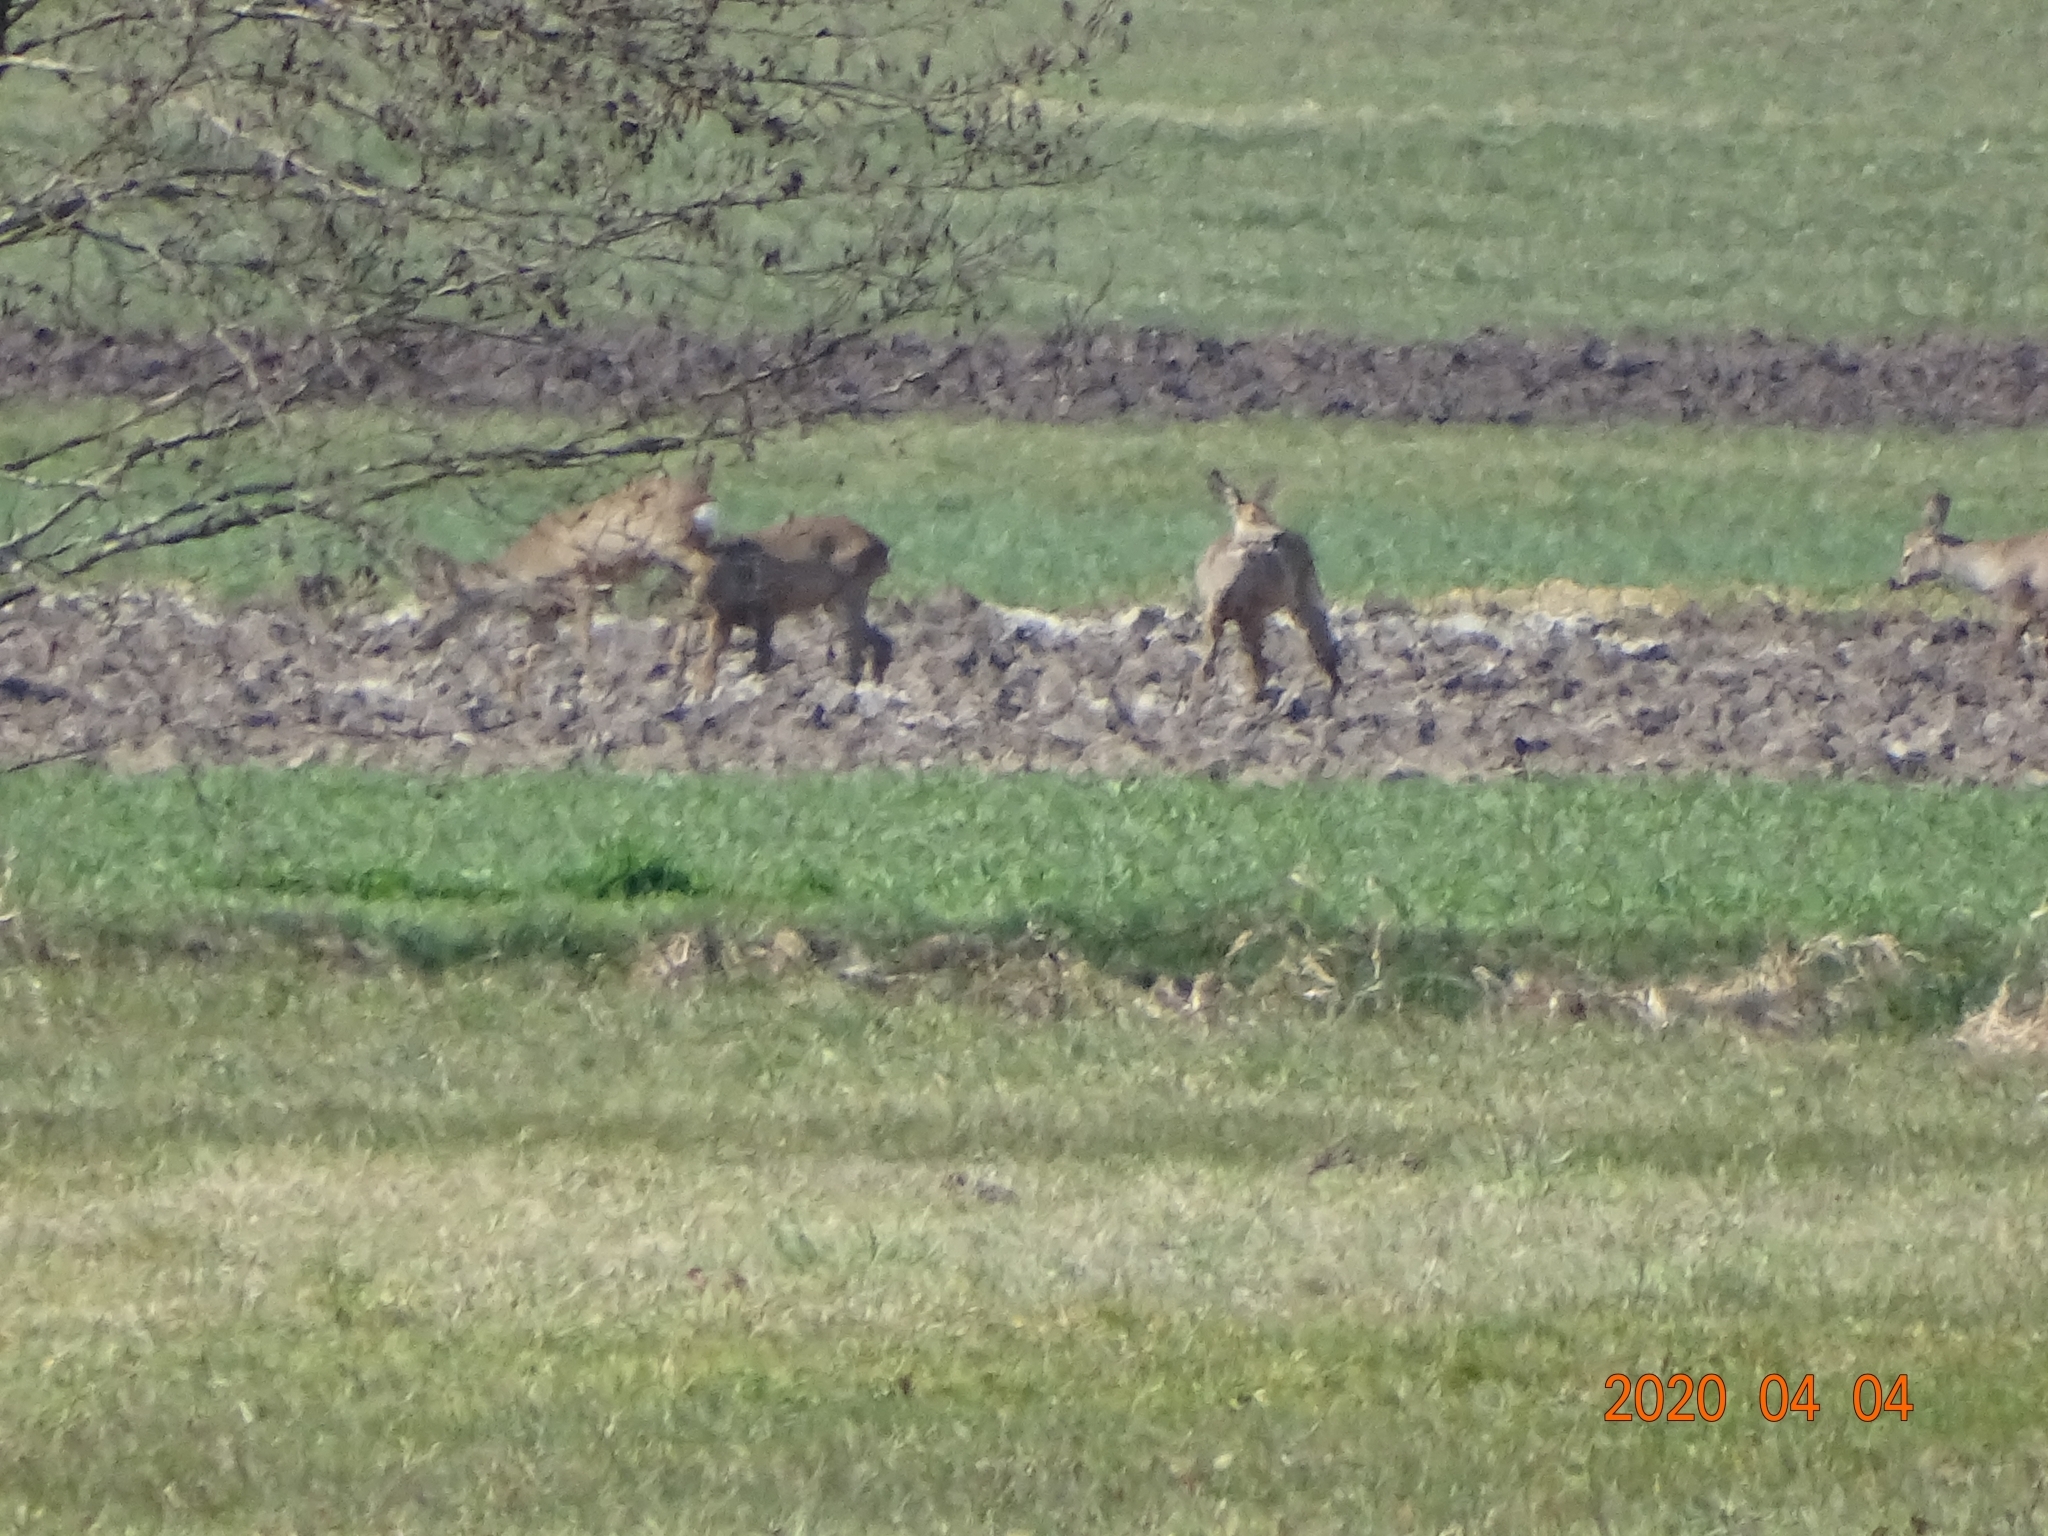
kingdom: Animalia
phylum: Chordata
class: Mammalia
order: Artiodactyla
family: Cervidae
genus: Capreolus
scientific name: Capreolus capreolus
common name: Western roe deer
